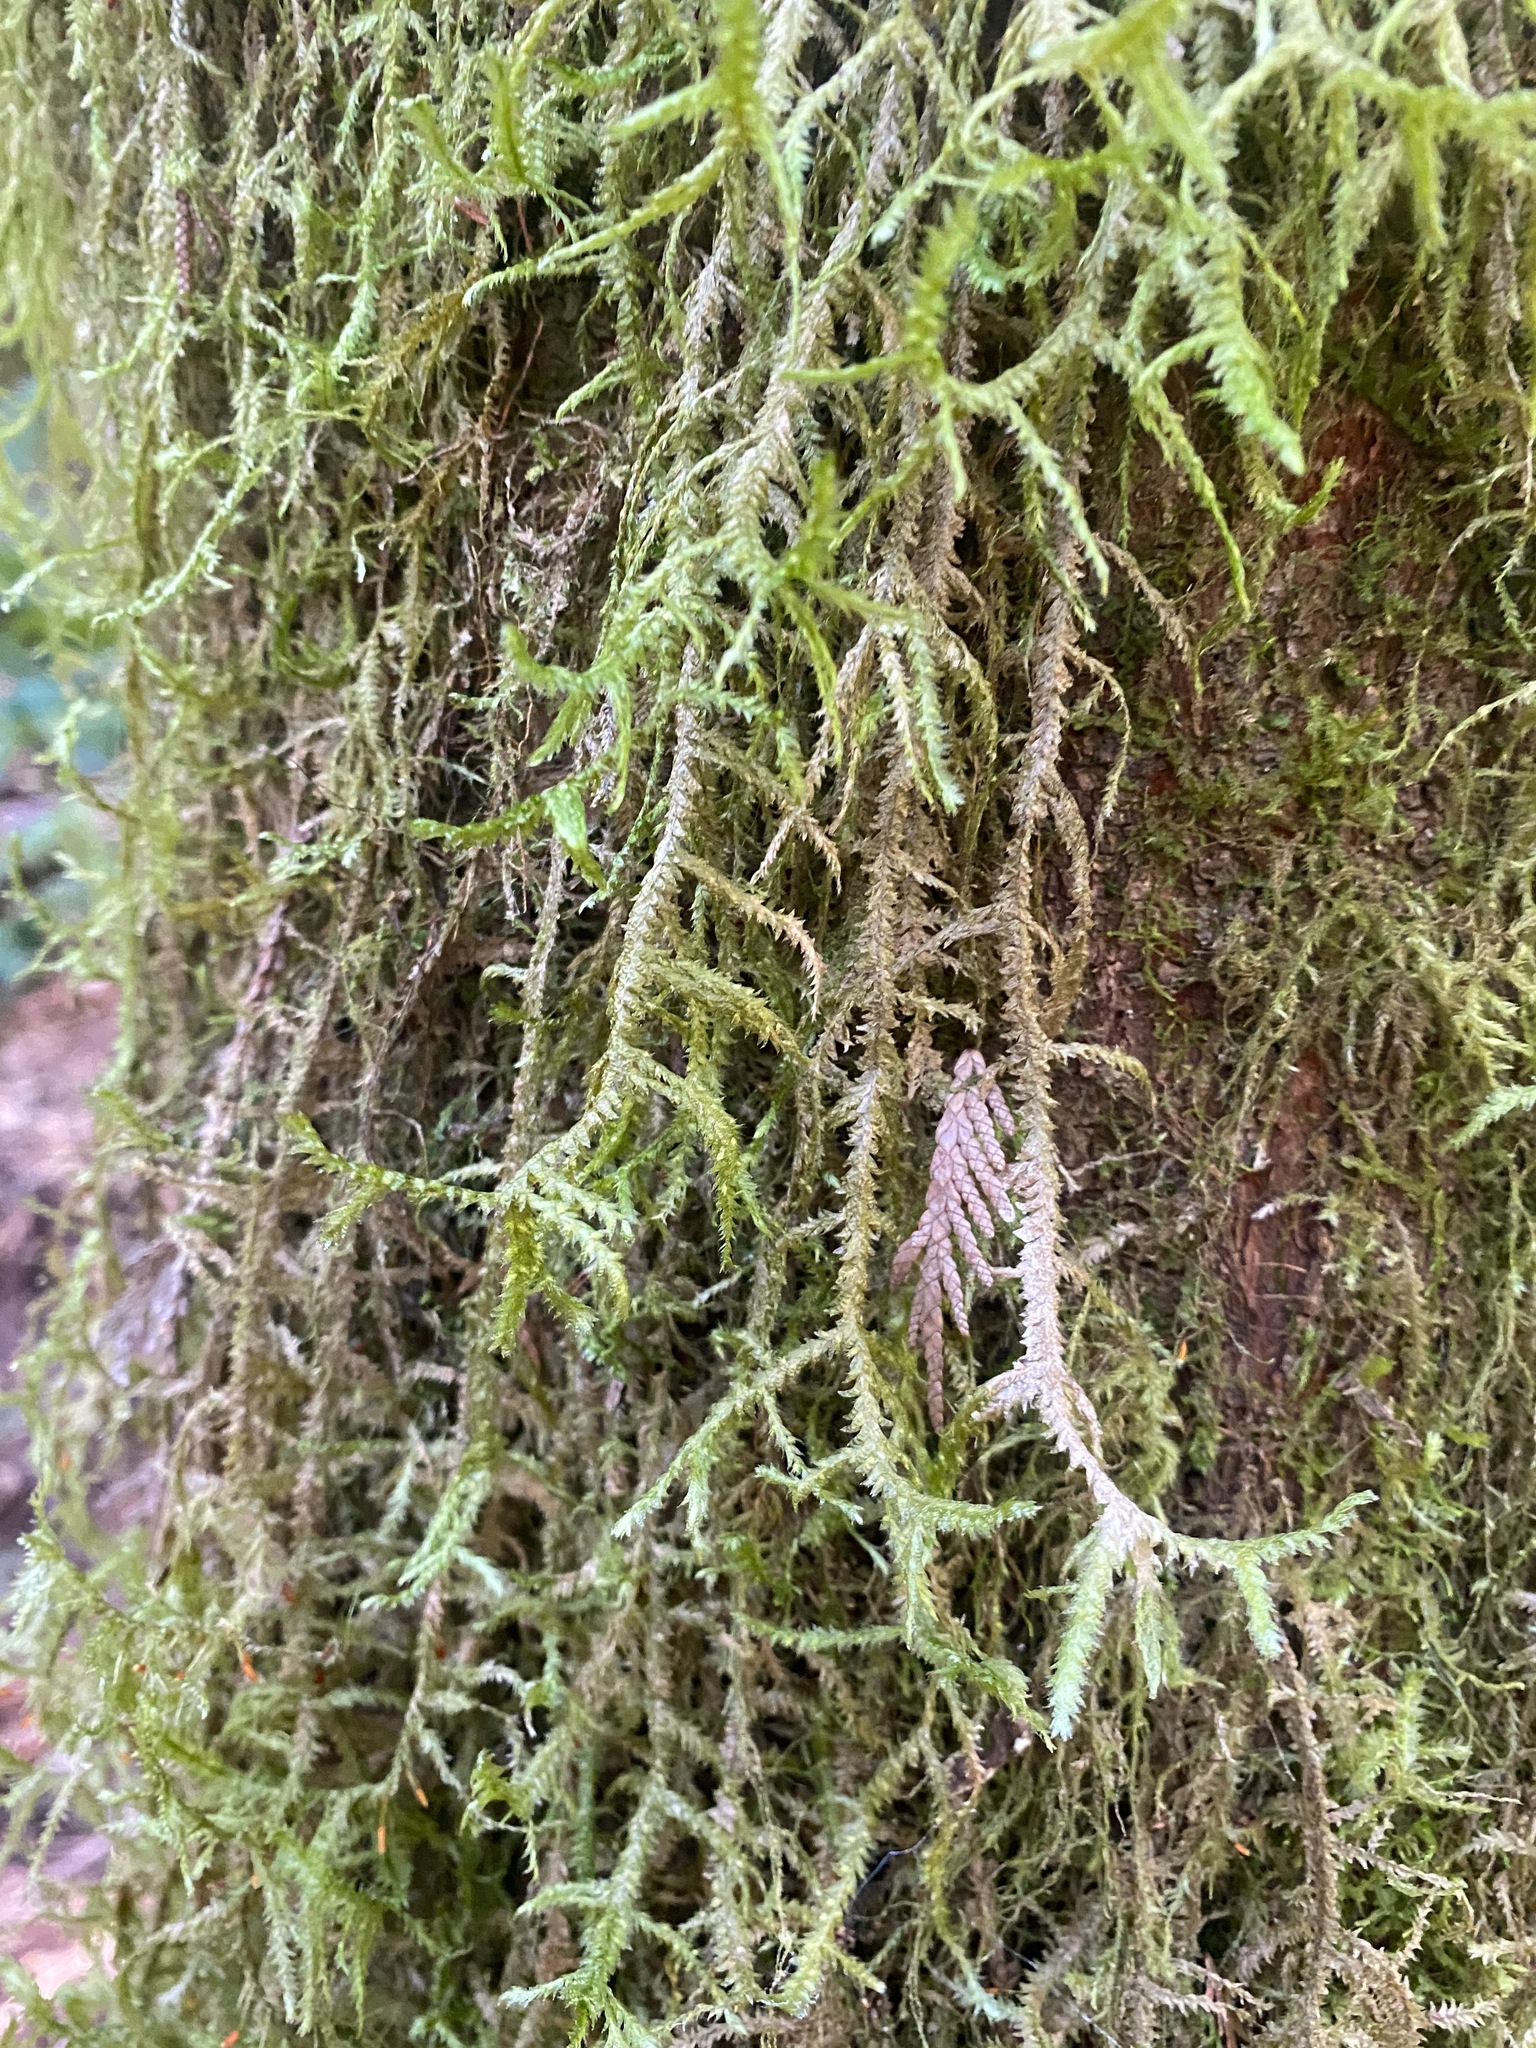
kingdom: Plantae
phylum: Bryophyta
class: Bryopsida
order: Hypnales
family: Neckeraceae
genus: Neckera
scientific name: Neckera douglasii
